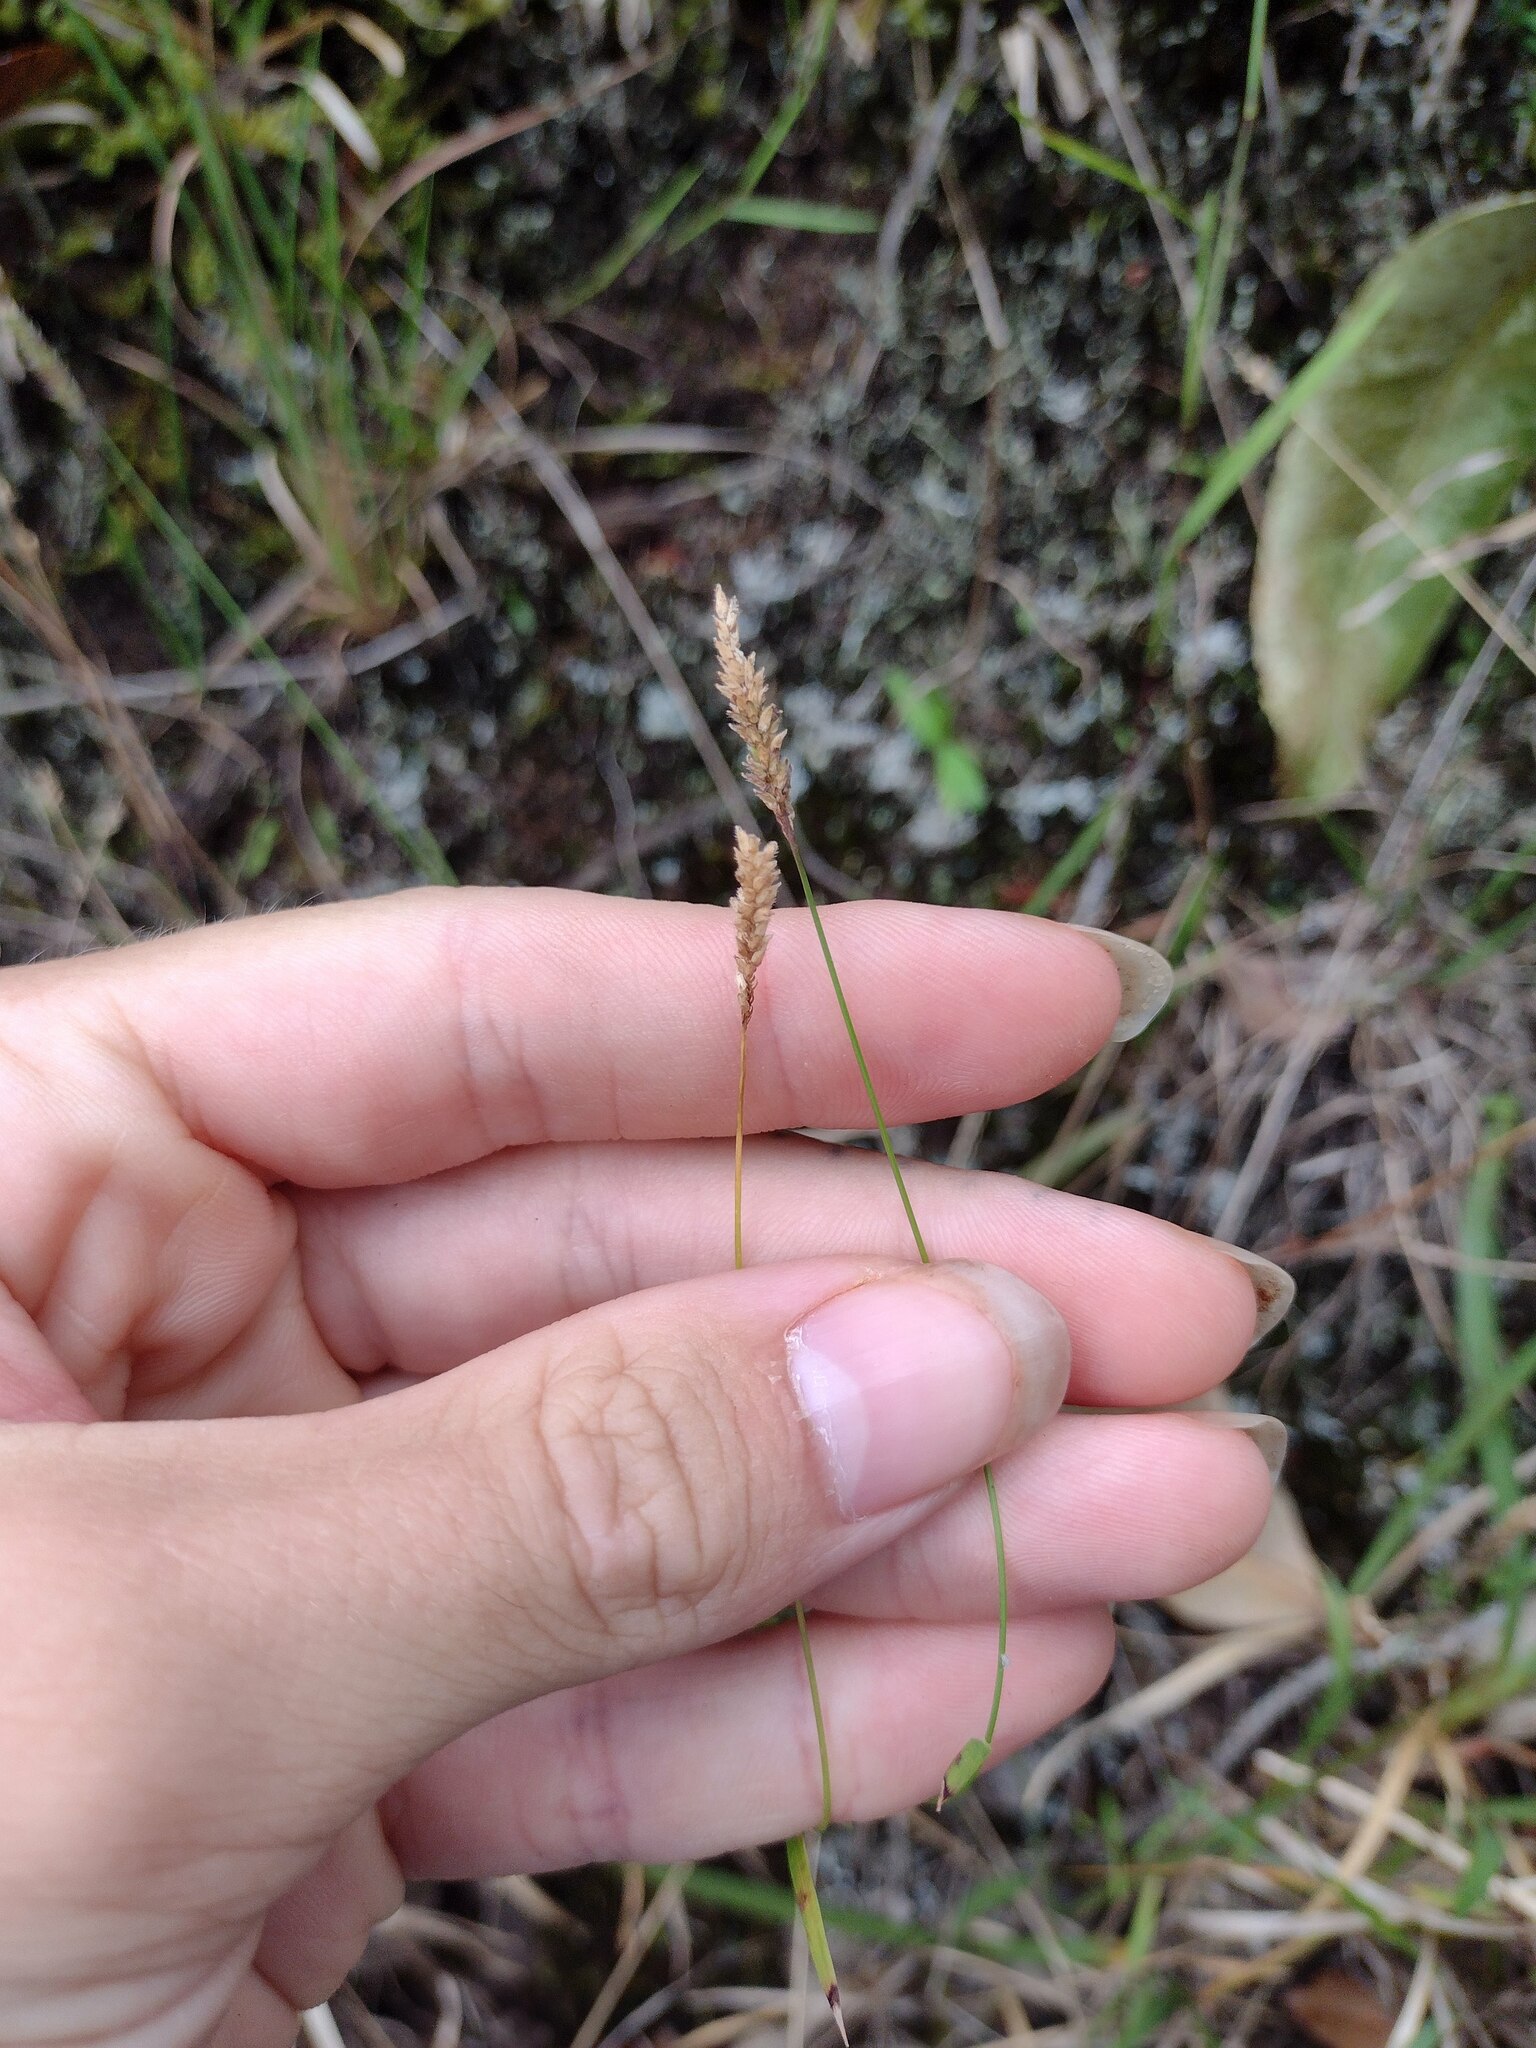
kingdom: Plantae
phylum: Tracheophyta
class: Liliopsida
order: Poales
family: Poaceae
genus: Sacciolepis
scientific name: Sacciolepis indica
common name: Glenwoodgrass
